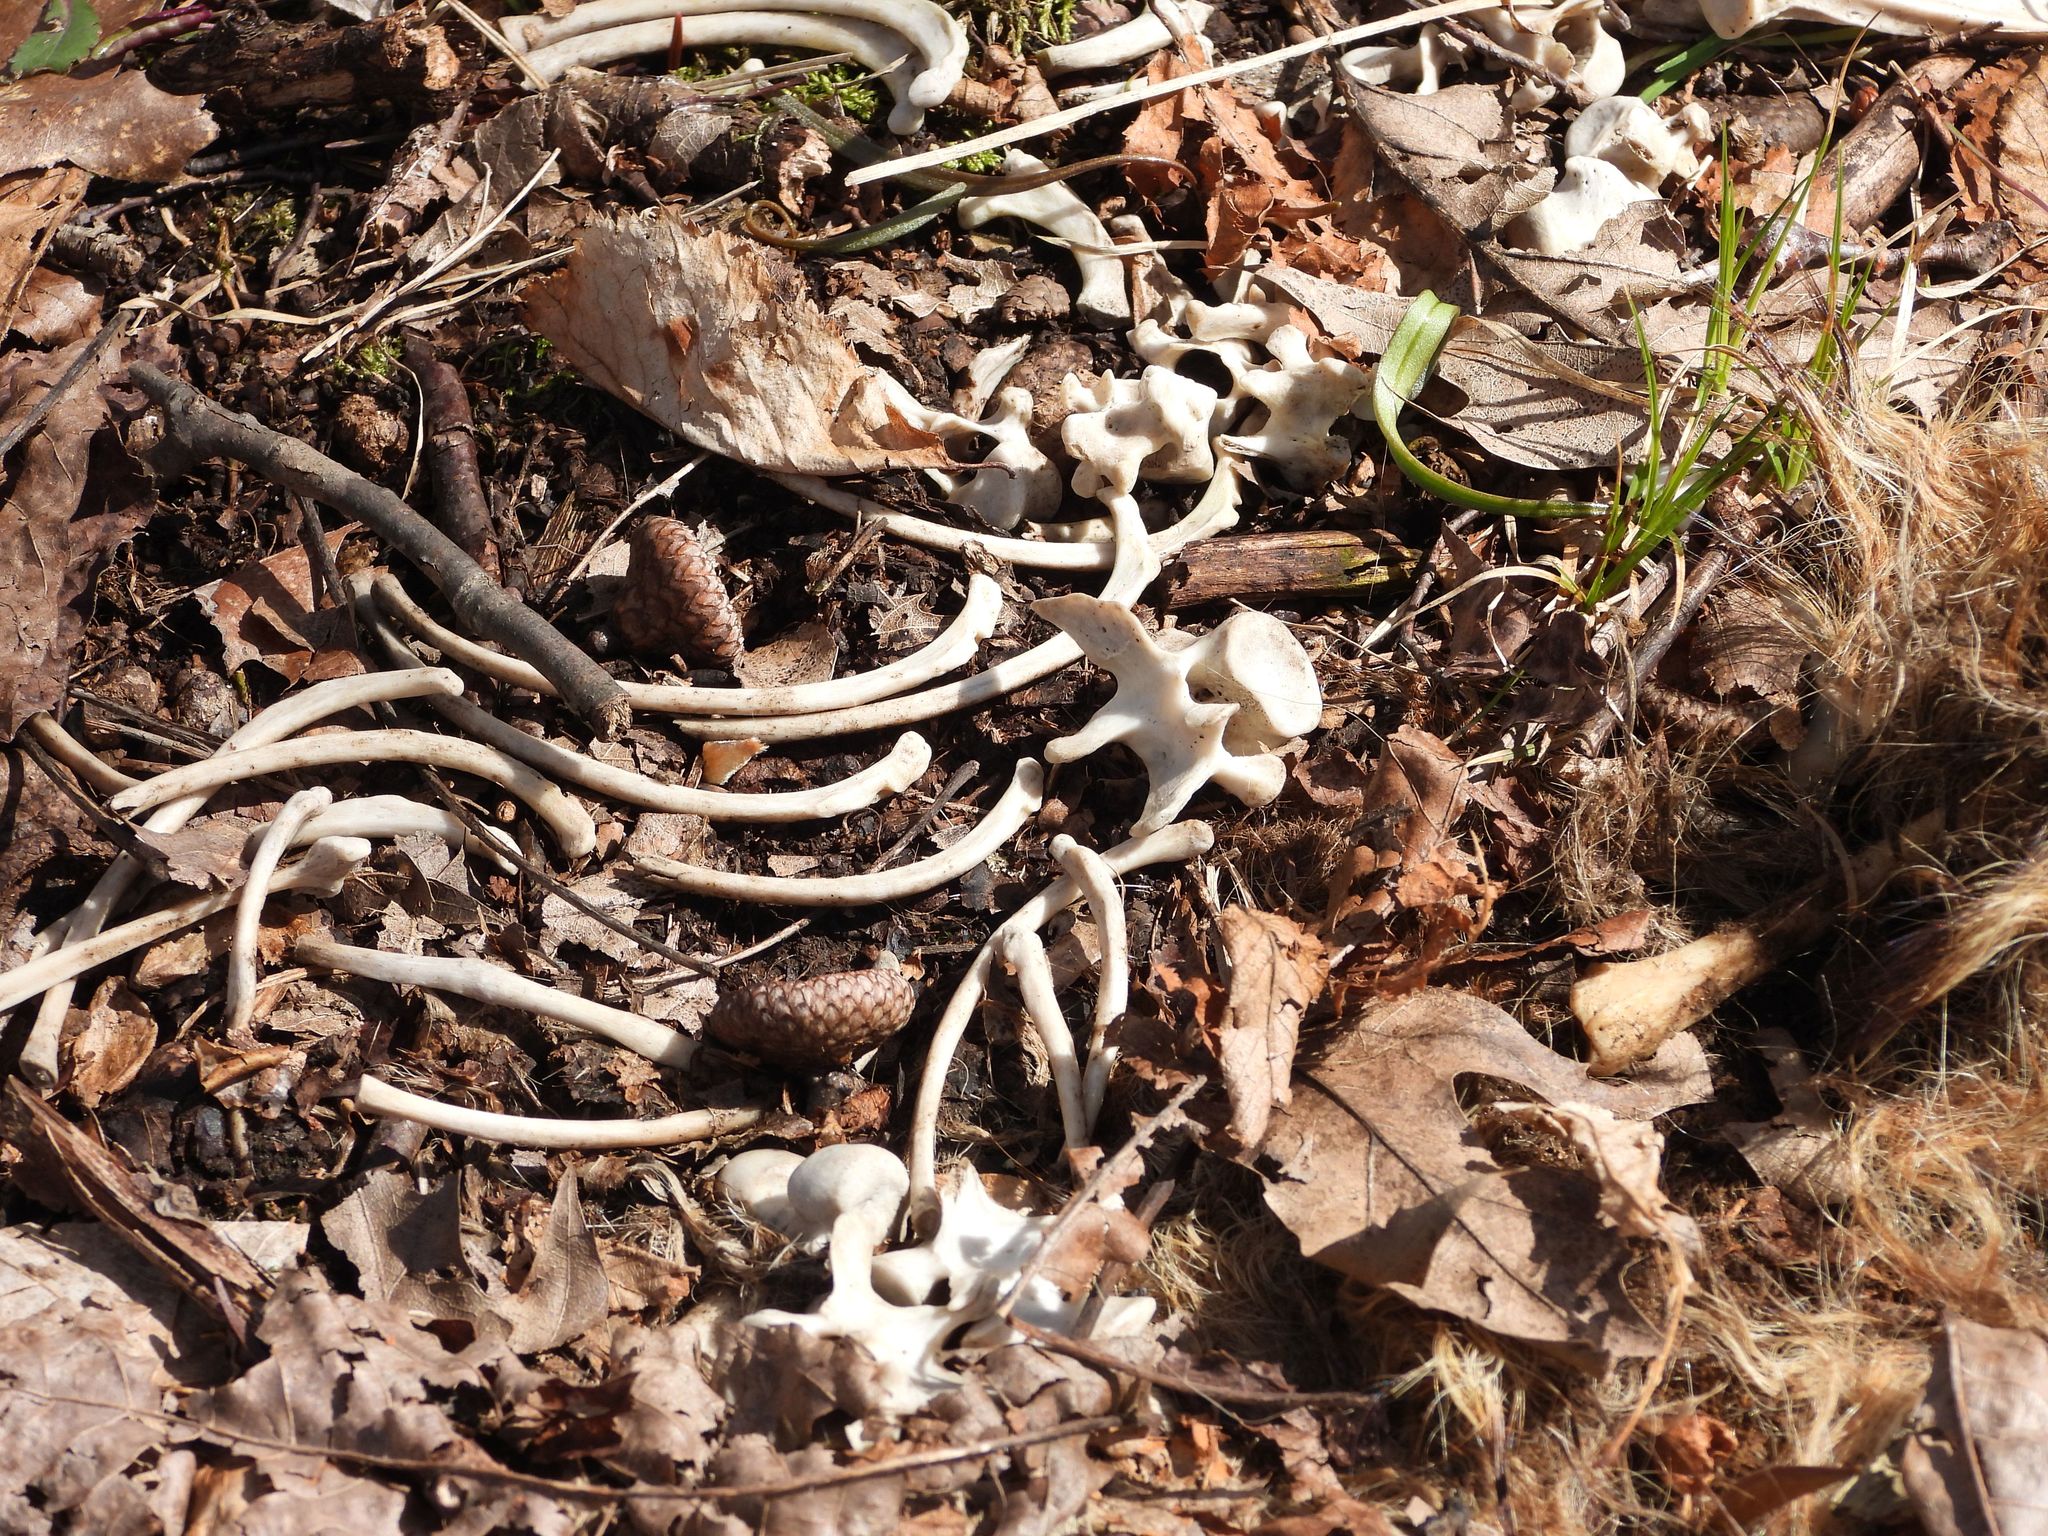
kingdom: Animalia
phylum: Chordata
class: Mammalia
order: Carnivora
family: Procyonidae
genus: Procyon
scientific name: Procyon lotor
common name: Raccoon
